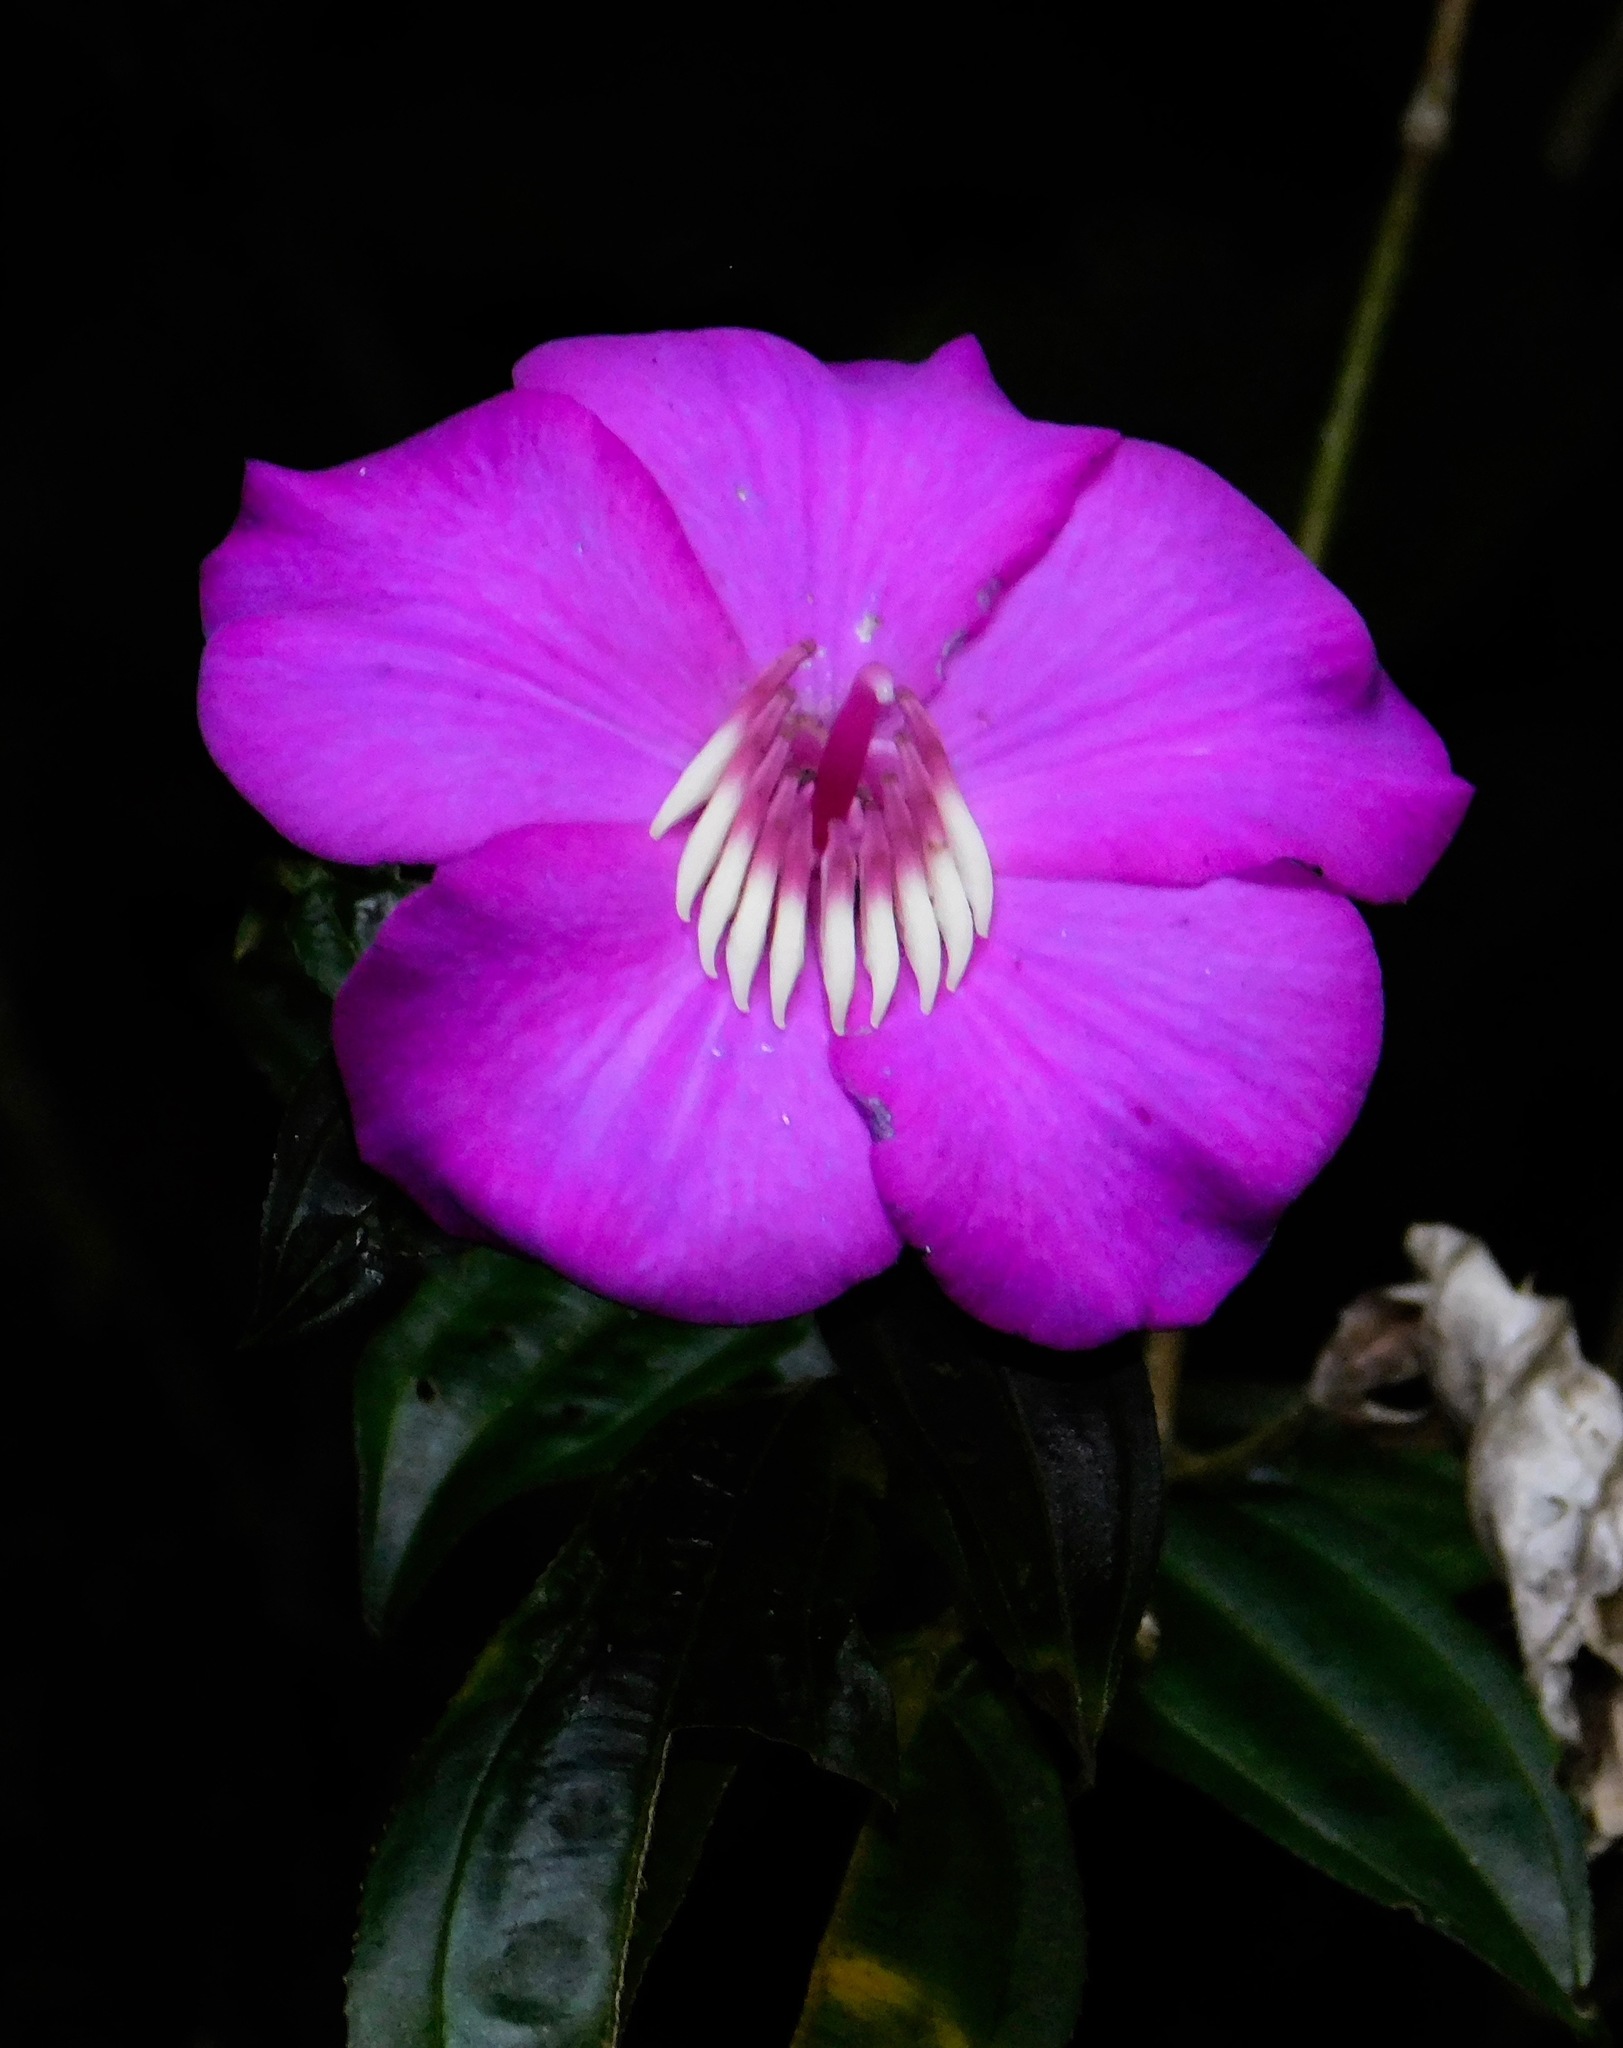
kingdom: Plantae
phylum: Tracheophyta
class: Magnoliopsida
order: Myrtales
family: Melastomataceae
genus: Meriania
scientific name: Meriania speciosa
